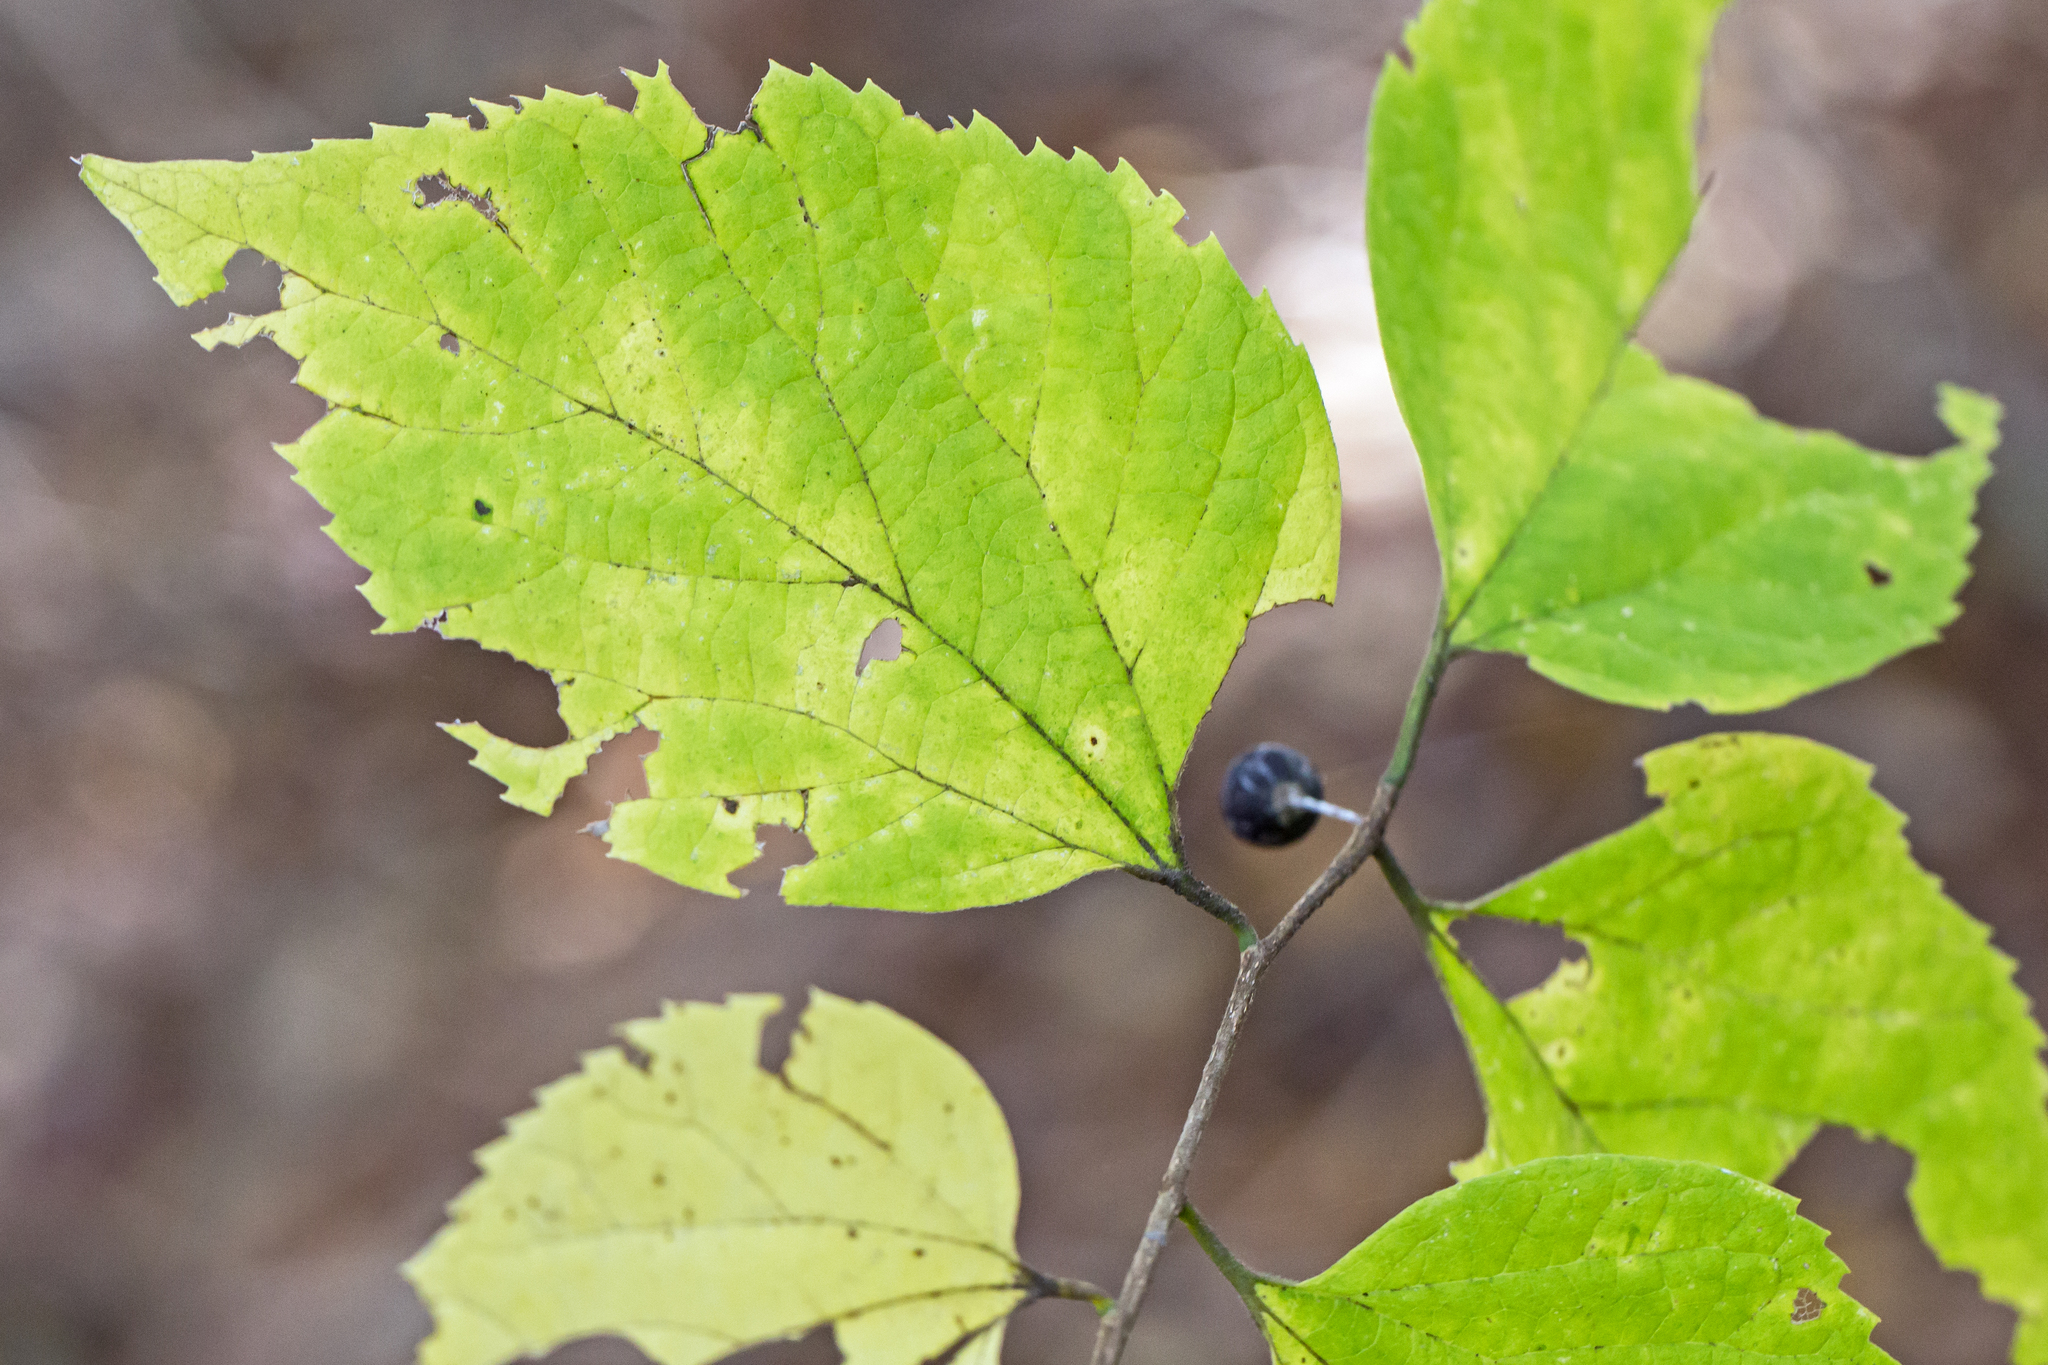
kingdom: Plantae
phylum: Tracheophyta
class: Magnoliopsida
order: Rosales
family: Cannabaceae
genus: Celtis
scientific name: Celtis occidentalis
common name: Common hackberry
